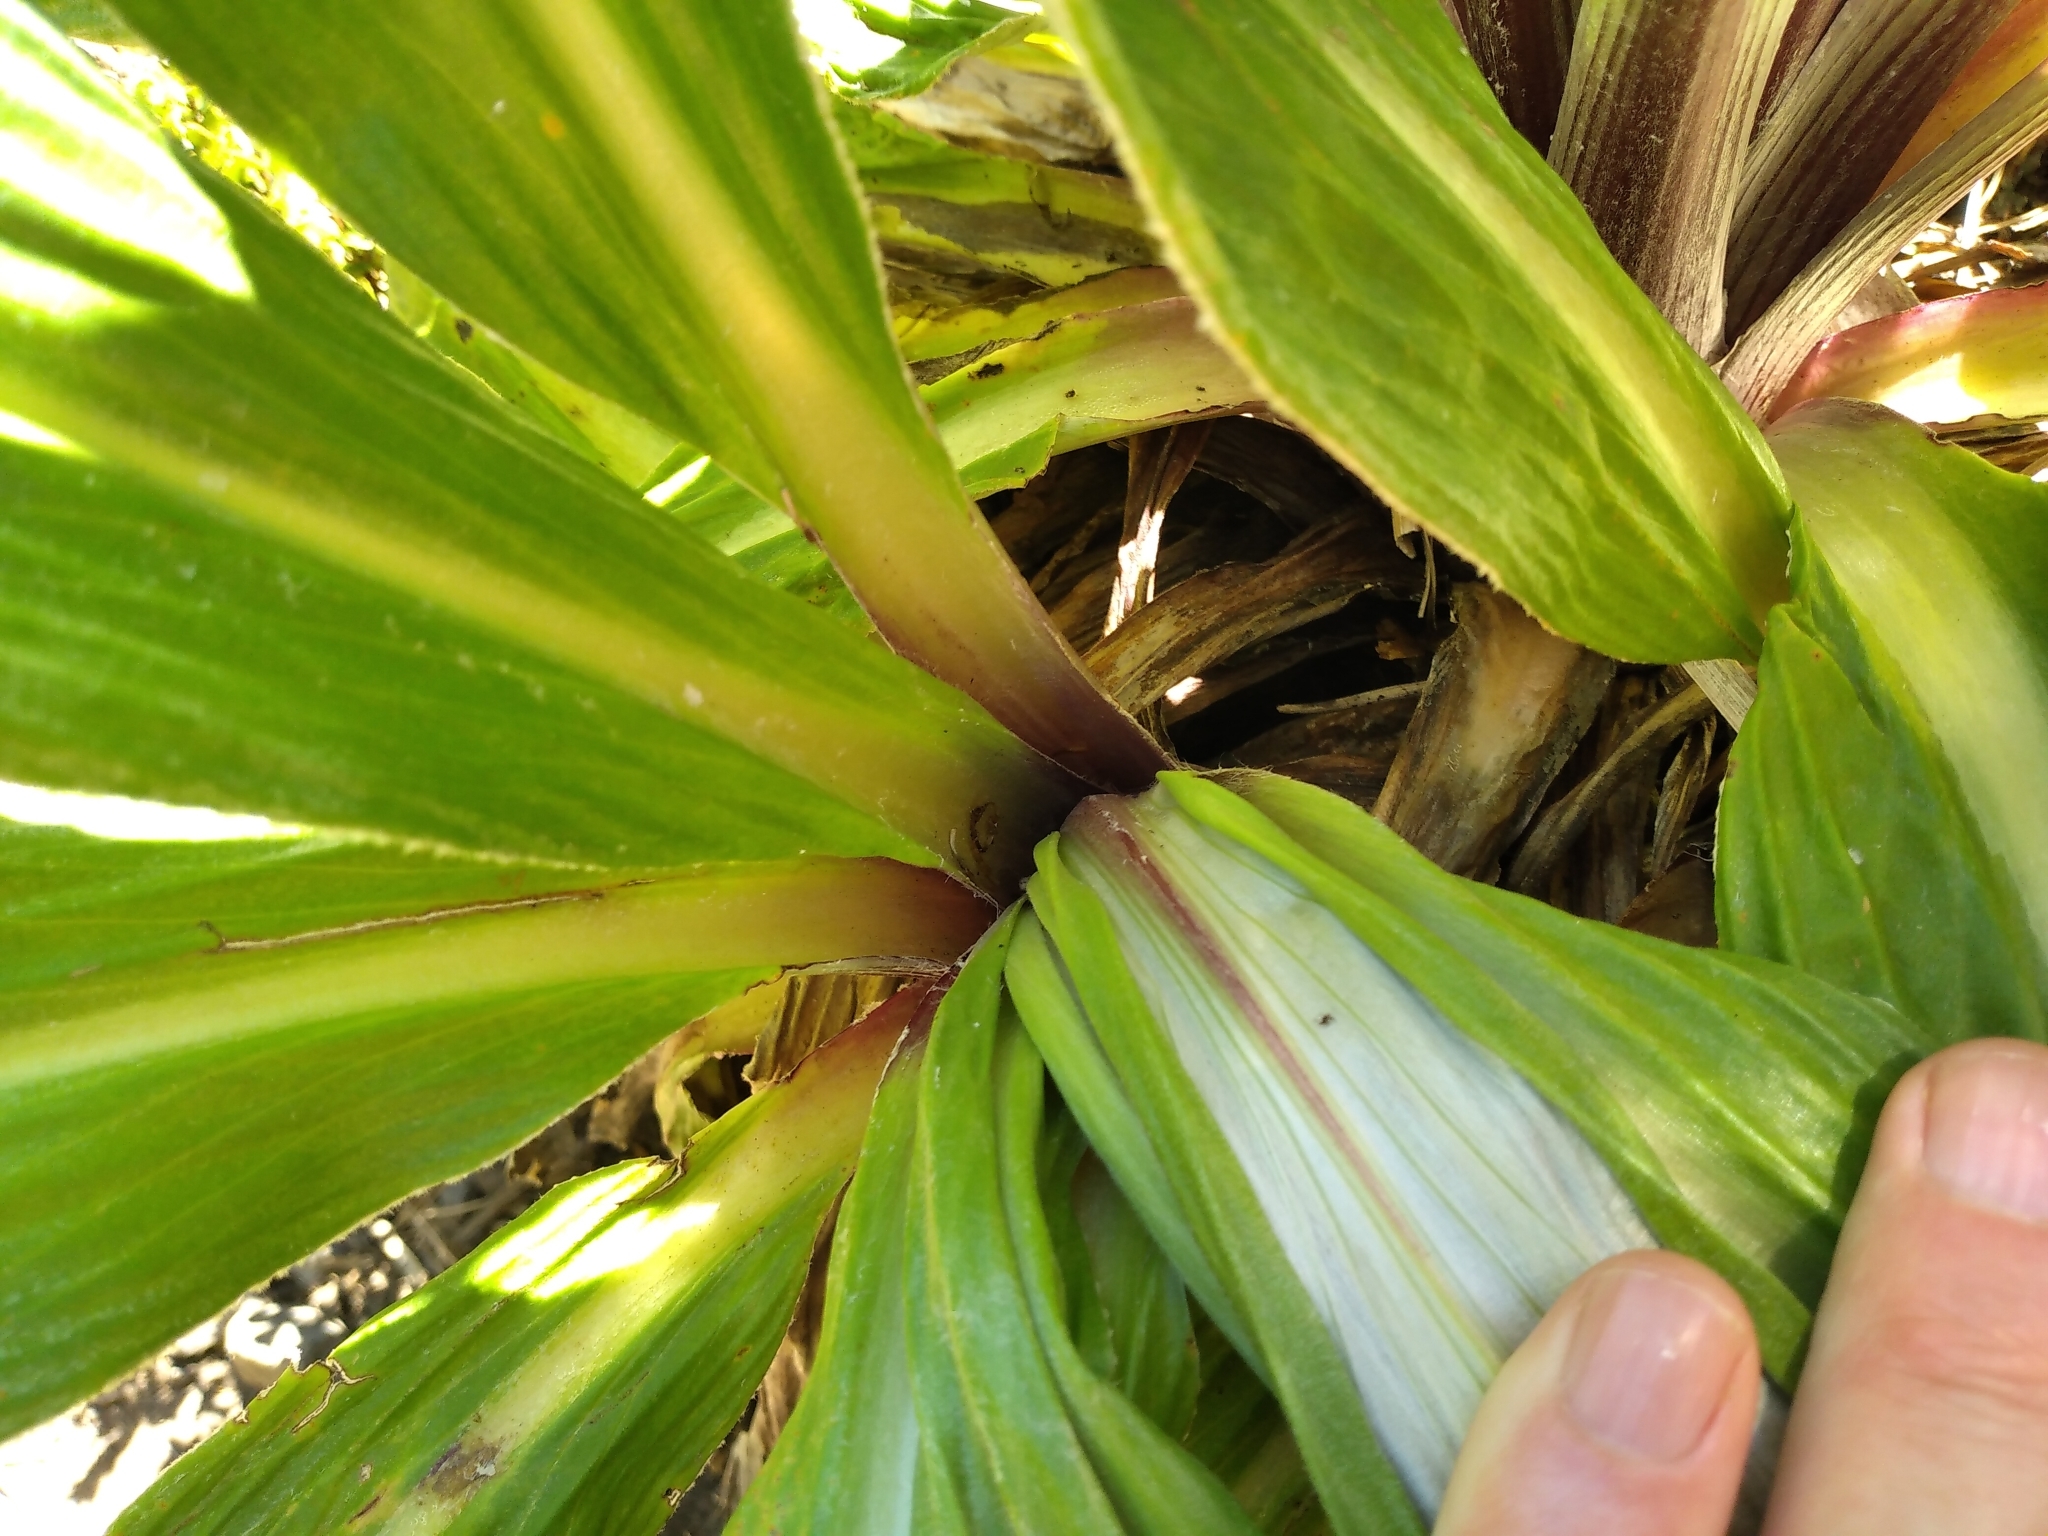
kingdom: Plantae
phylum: Tracheophyta
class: Magnoliopsida
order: Asterales
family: Asteraceae
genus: Celmisia
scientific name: Celmisia semicordata
